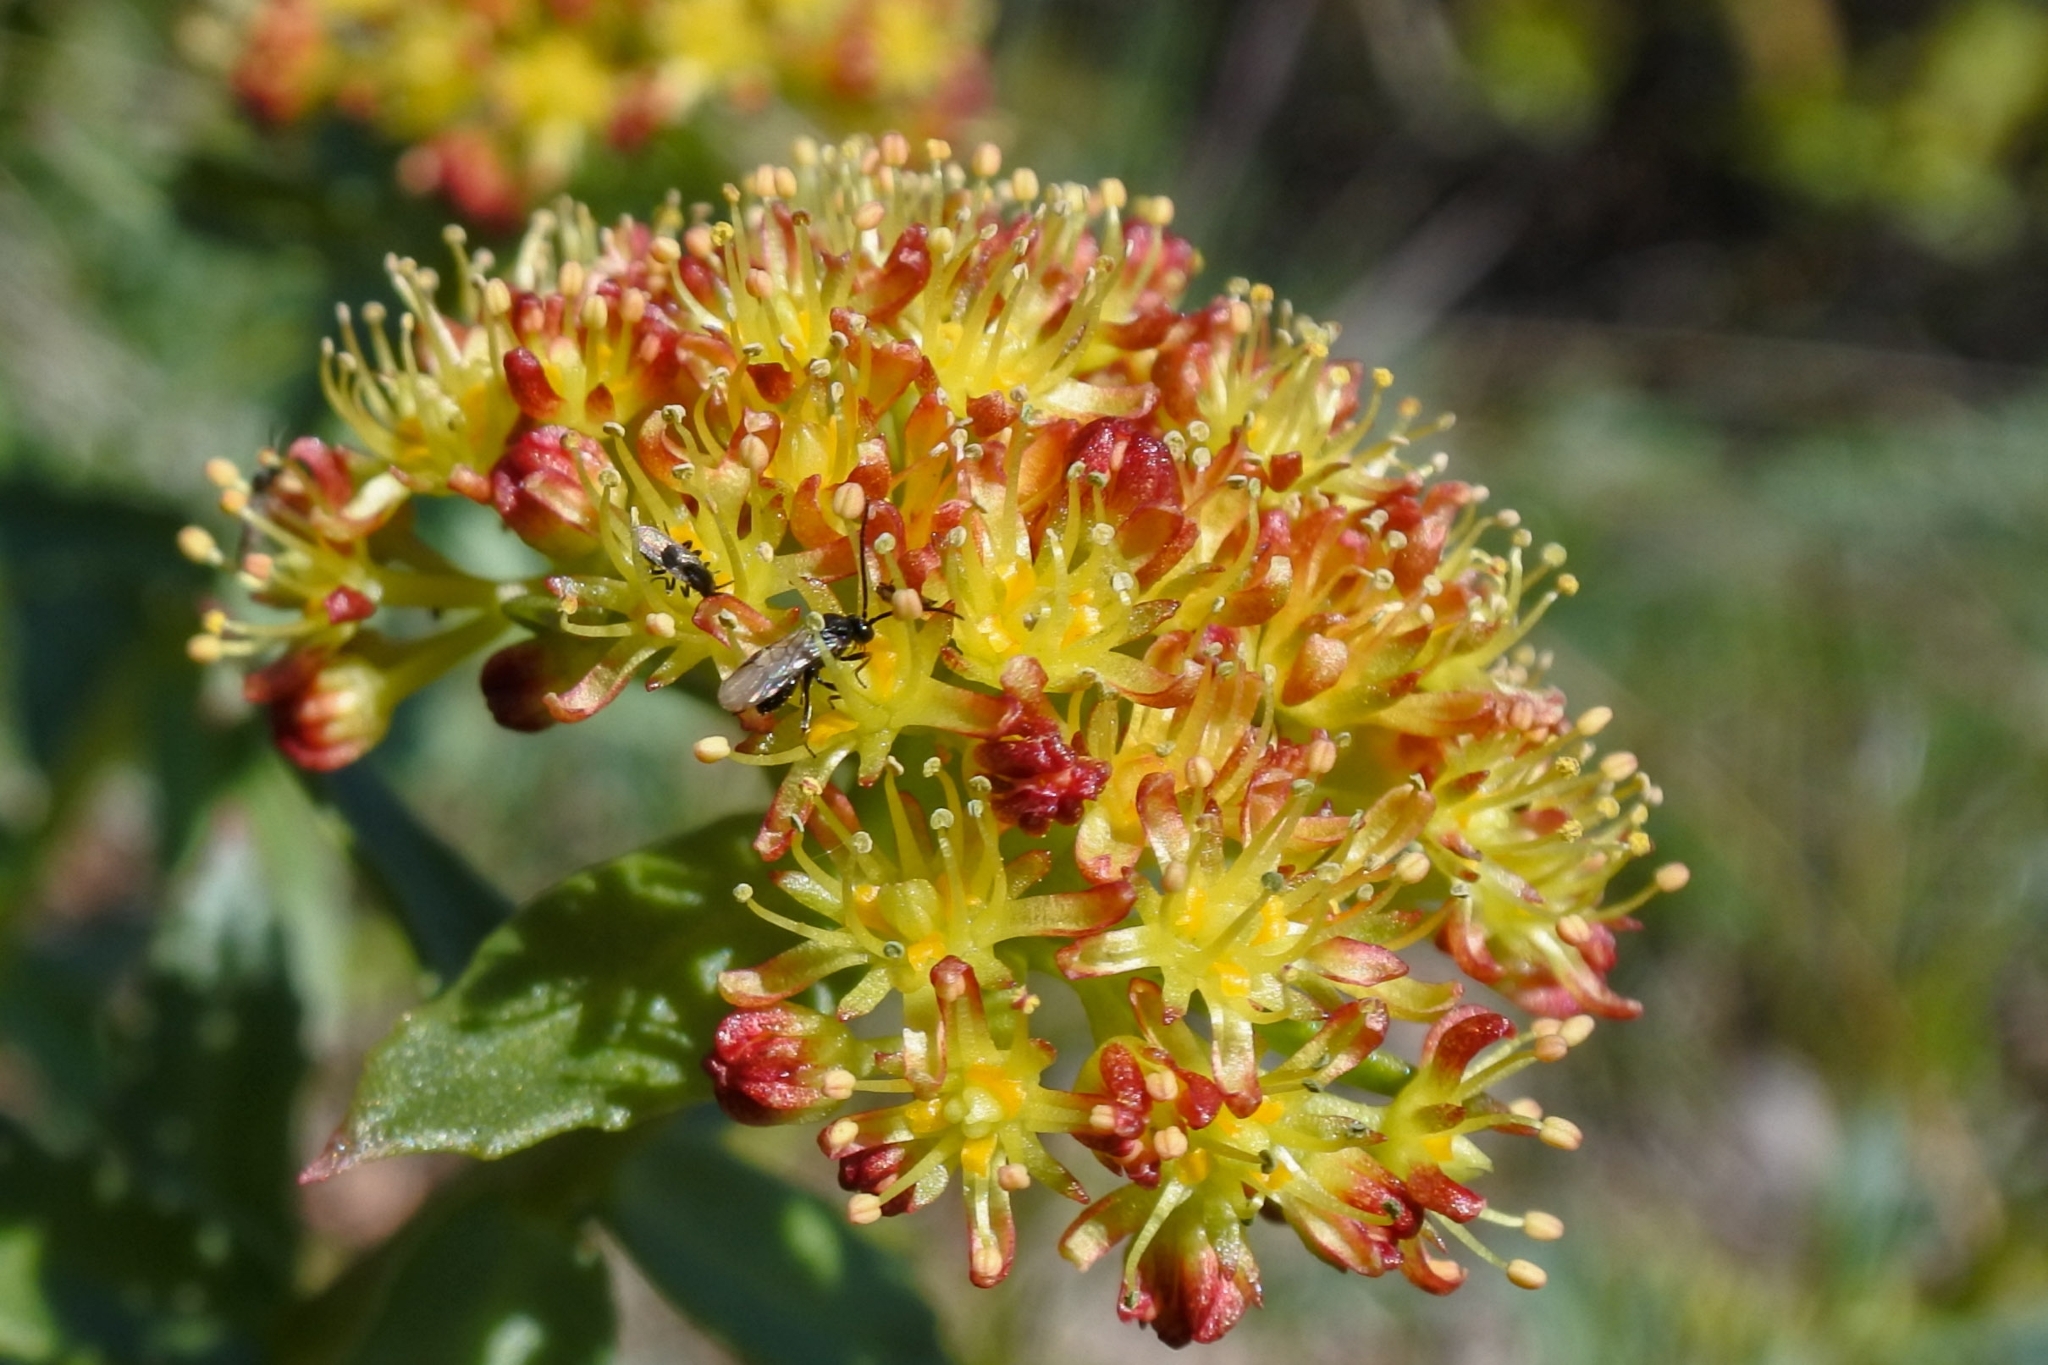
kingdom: Plantae
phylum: Tracheophyta
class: Magnoliopsida
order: Saxifragales
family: Crassulaceae
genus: Rhodiola
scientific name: Rhodiola rosea
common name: Roseroot
